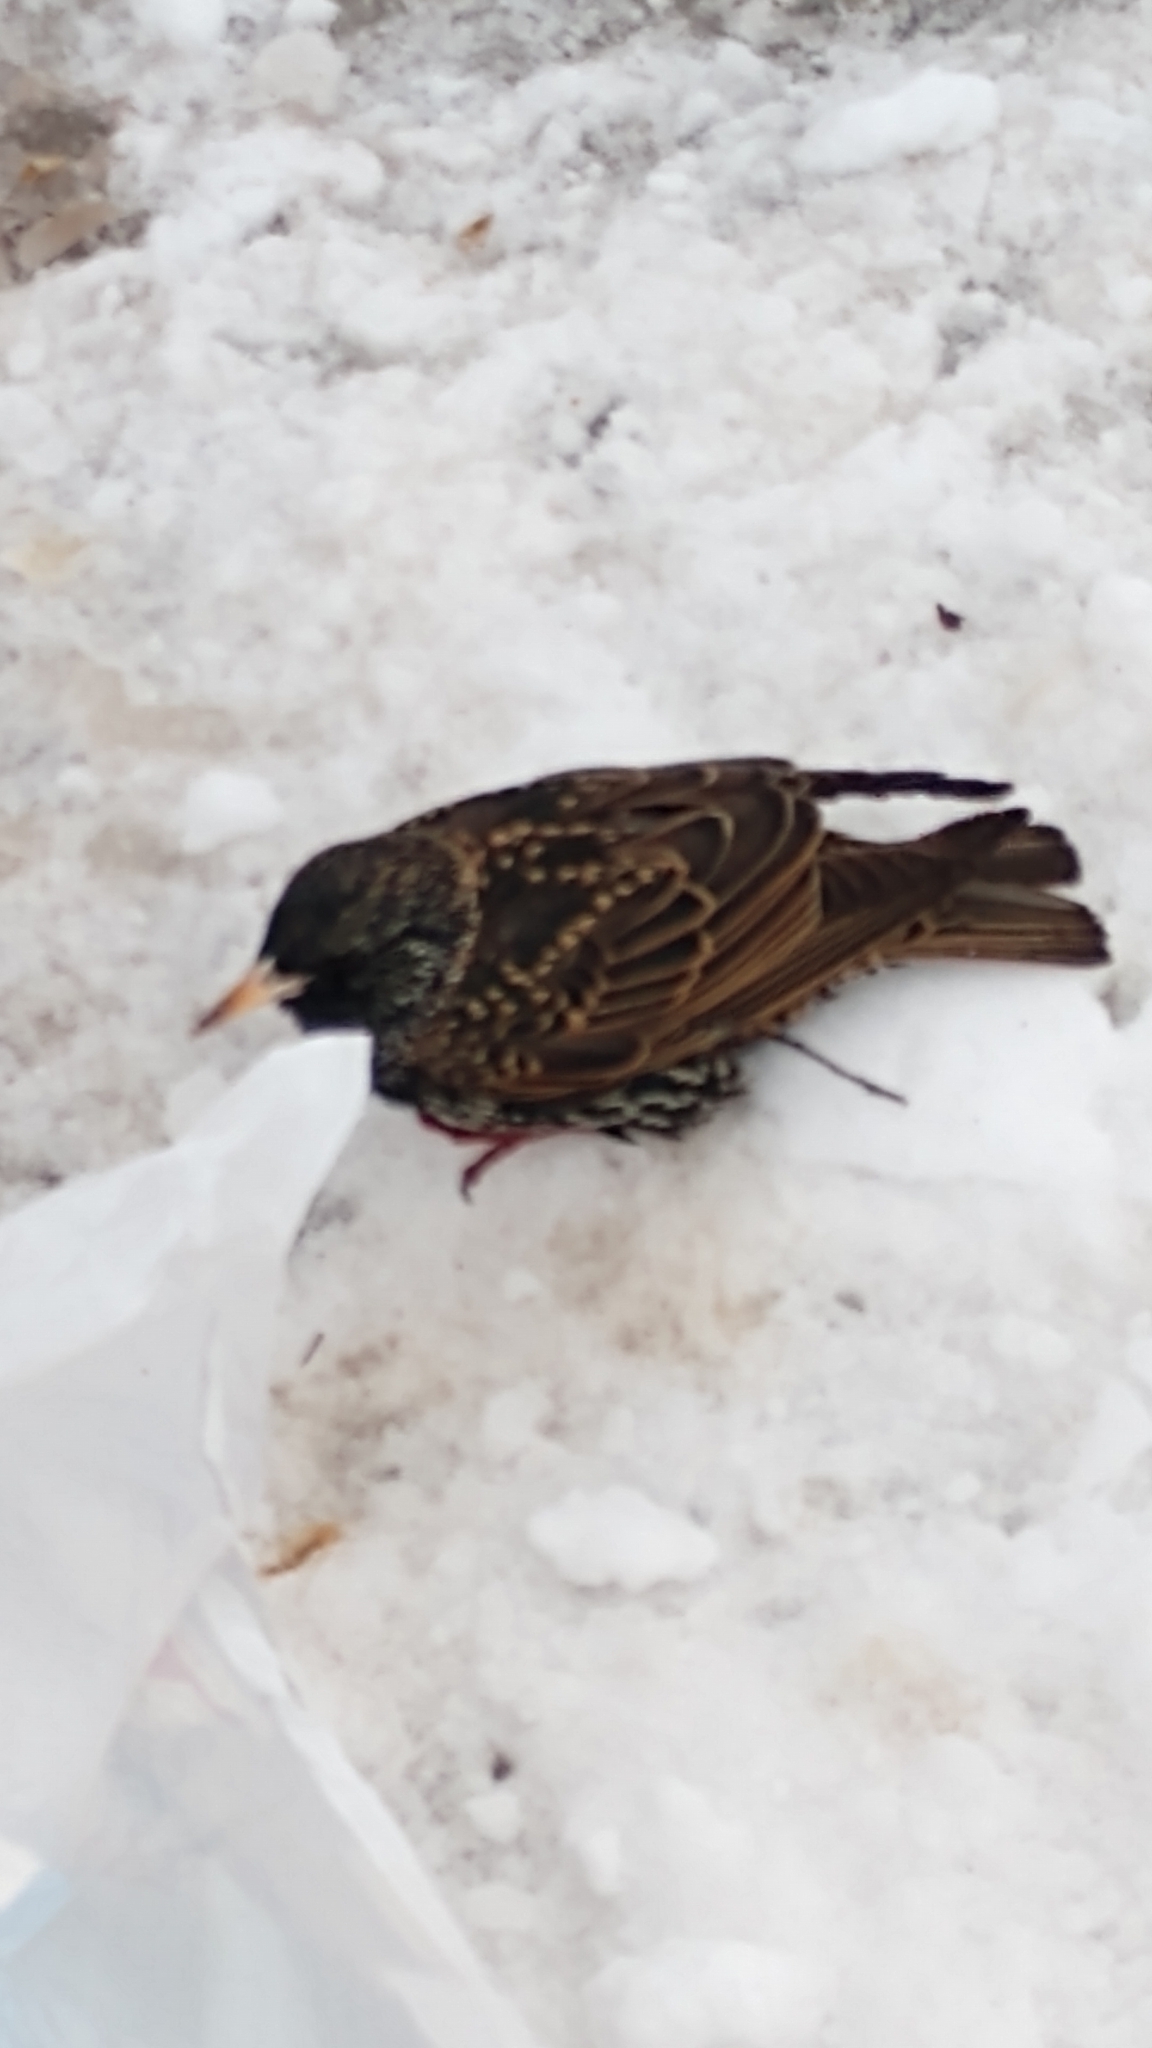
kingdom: Animalia
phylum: Chordata
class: Aves
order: Passeriformes
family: Sturnidae
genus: Sturnus
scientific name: Sturnus vulgaris
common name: Common starling
